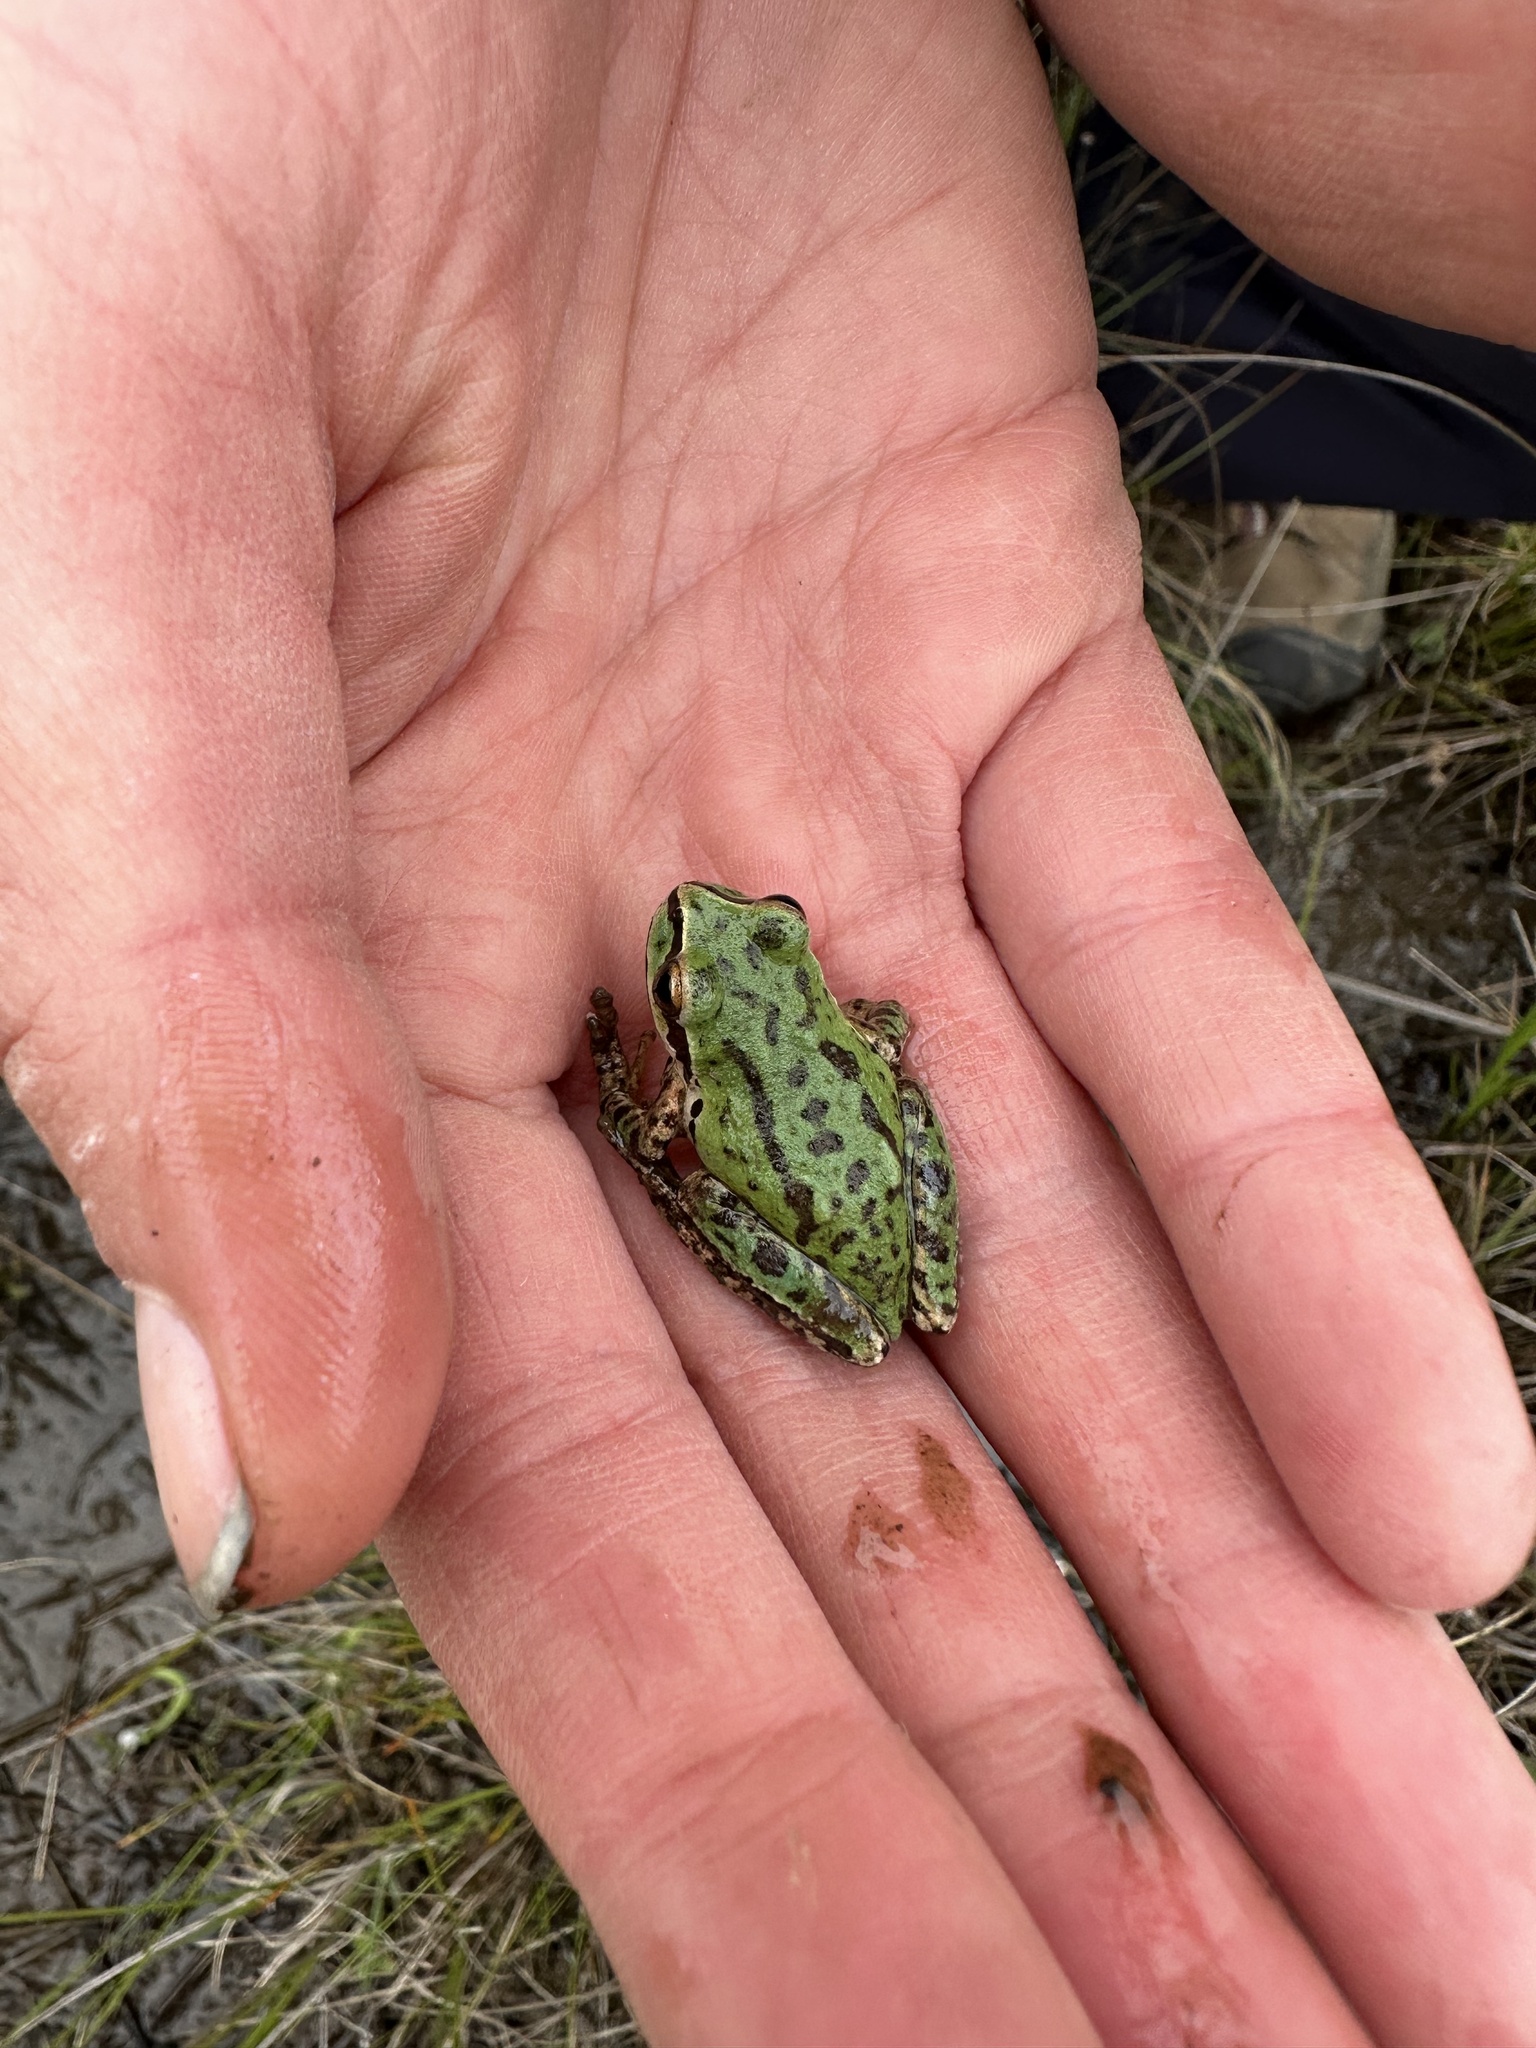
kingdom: Animalia
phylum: Chordata
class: Amphibia
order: Anura
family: Hylidae
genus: Pseudacris
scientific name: Pseudacris regilla
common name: Pacific chorus frog
